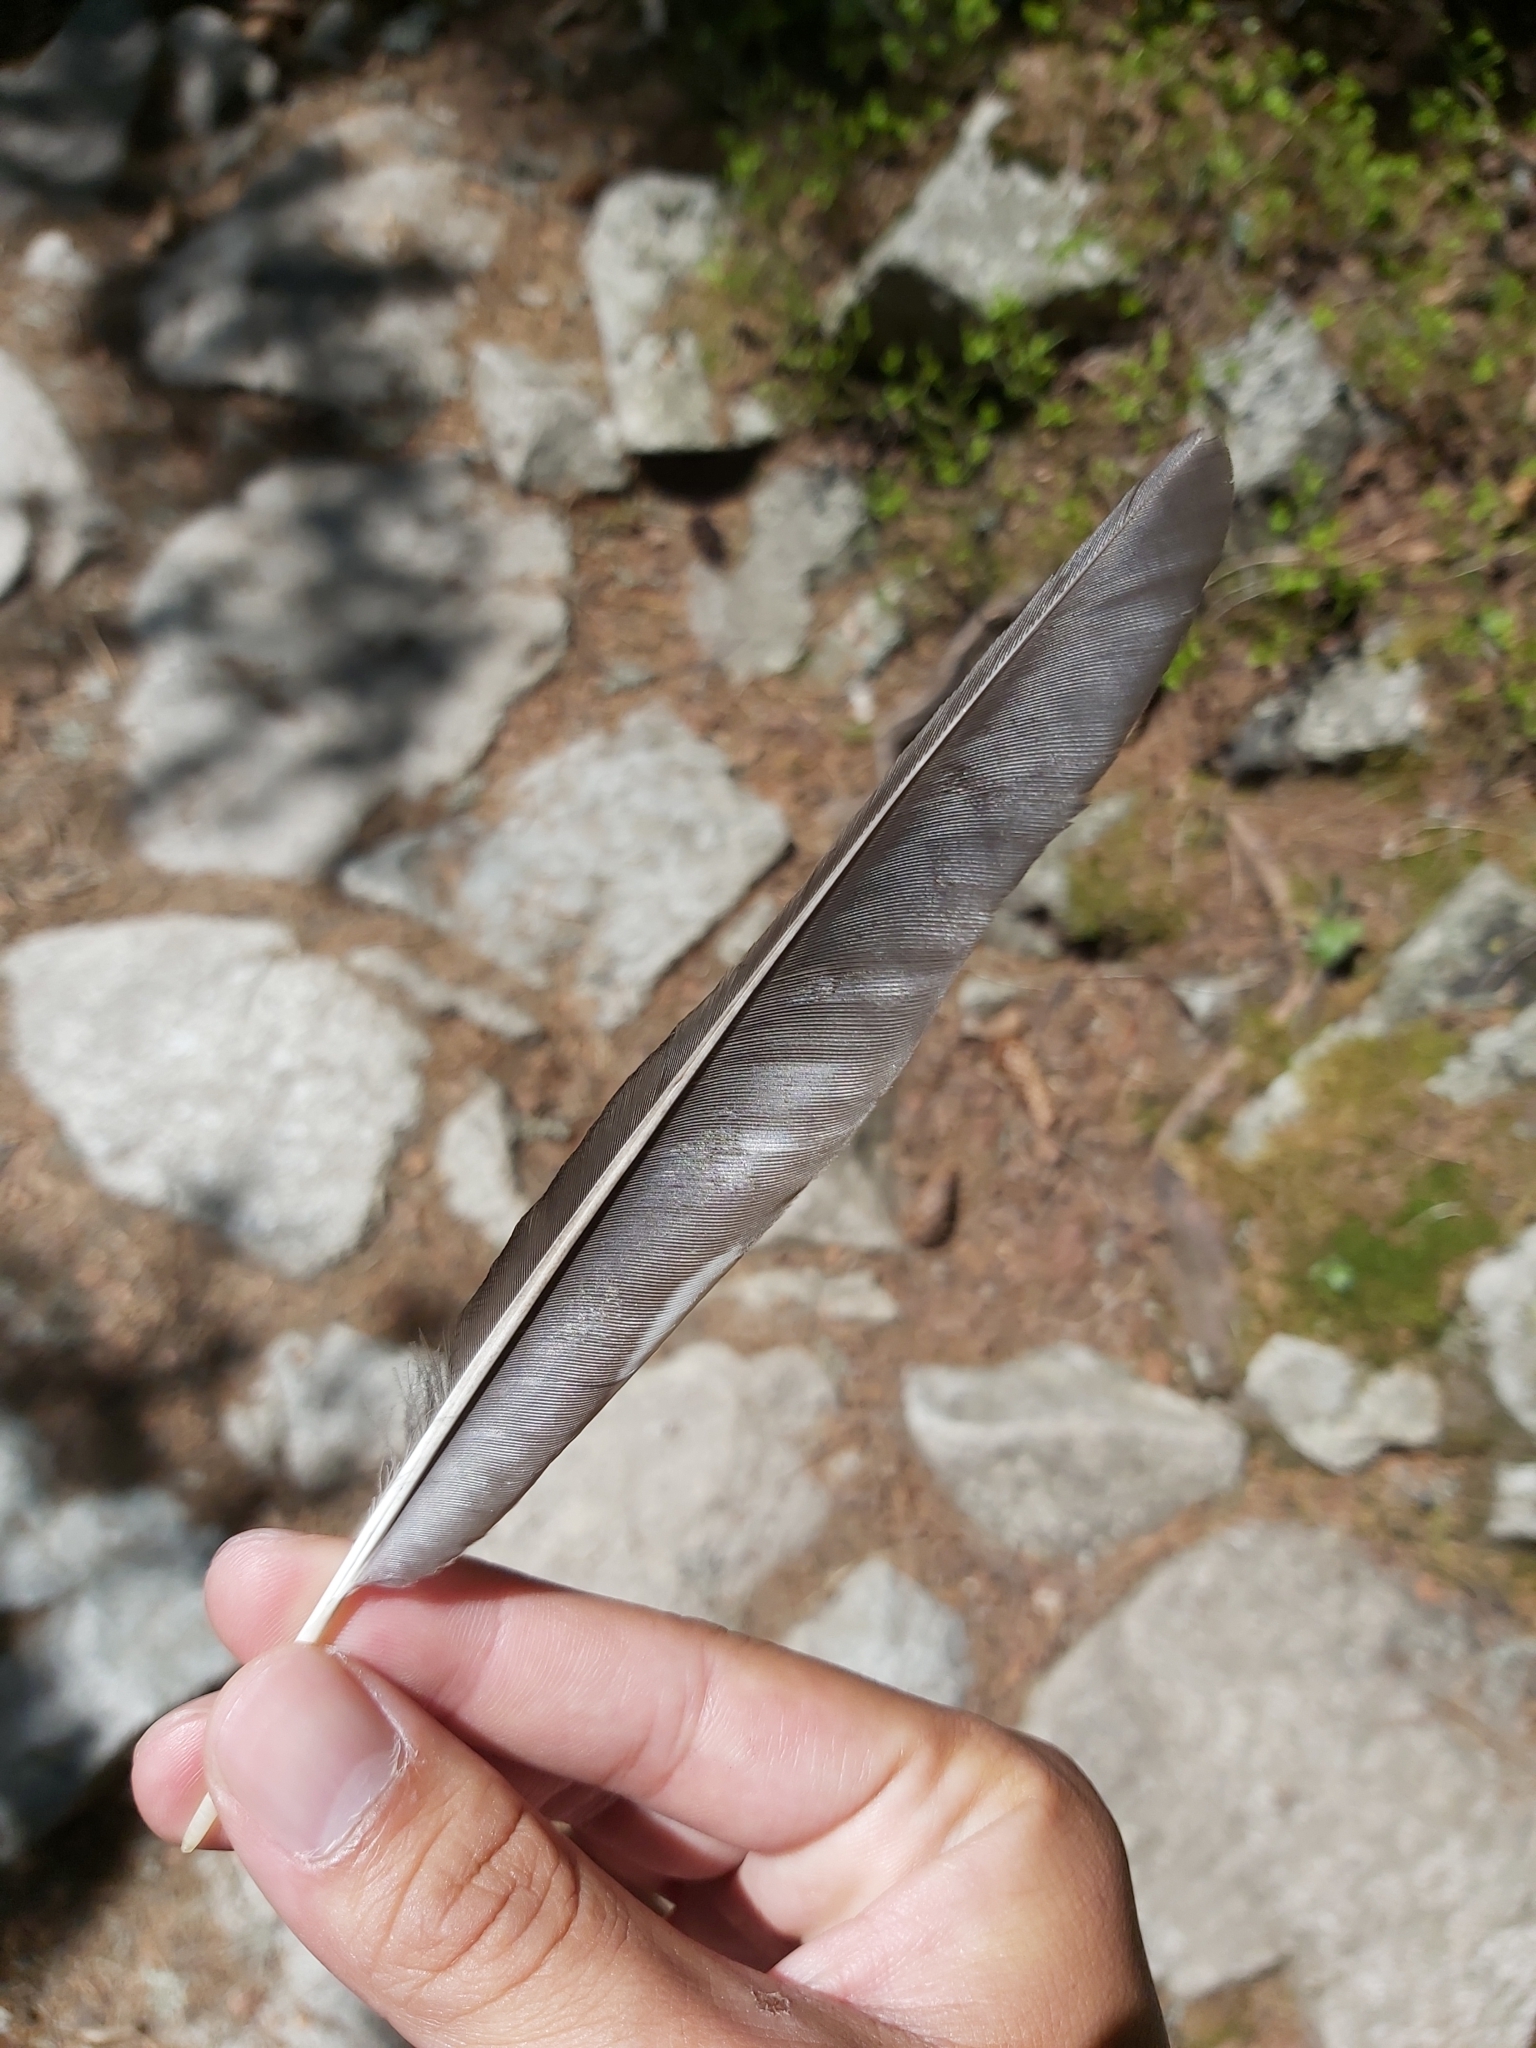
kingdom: Animalia
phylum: Chordata
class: Aves
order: Passeriformes
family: Corvidae
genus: Nucifraga
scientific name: Nucifraga caryocatactes
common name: Spotted nutcracker
